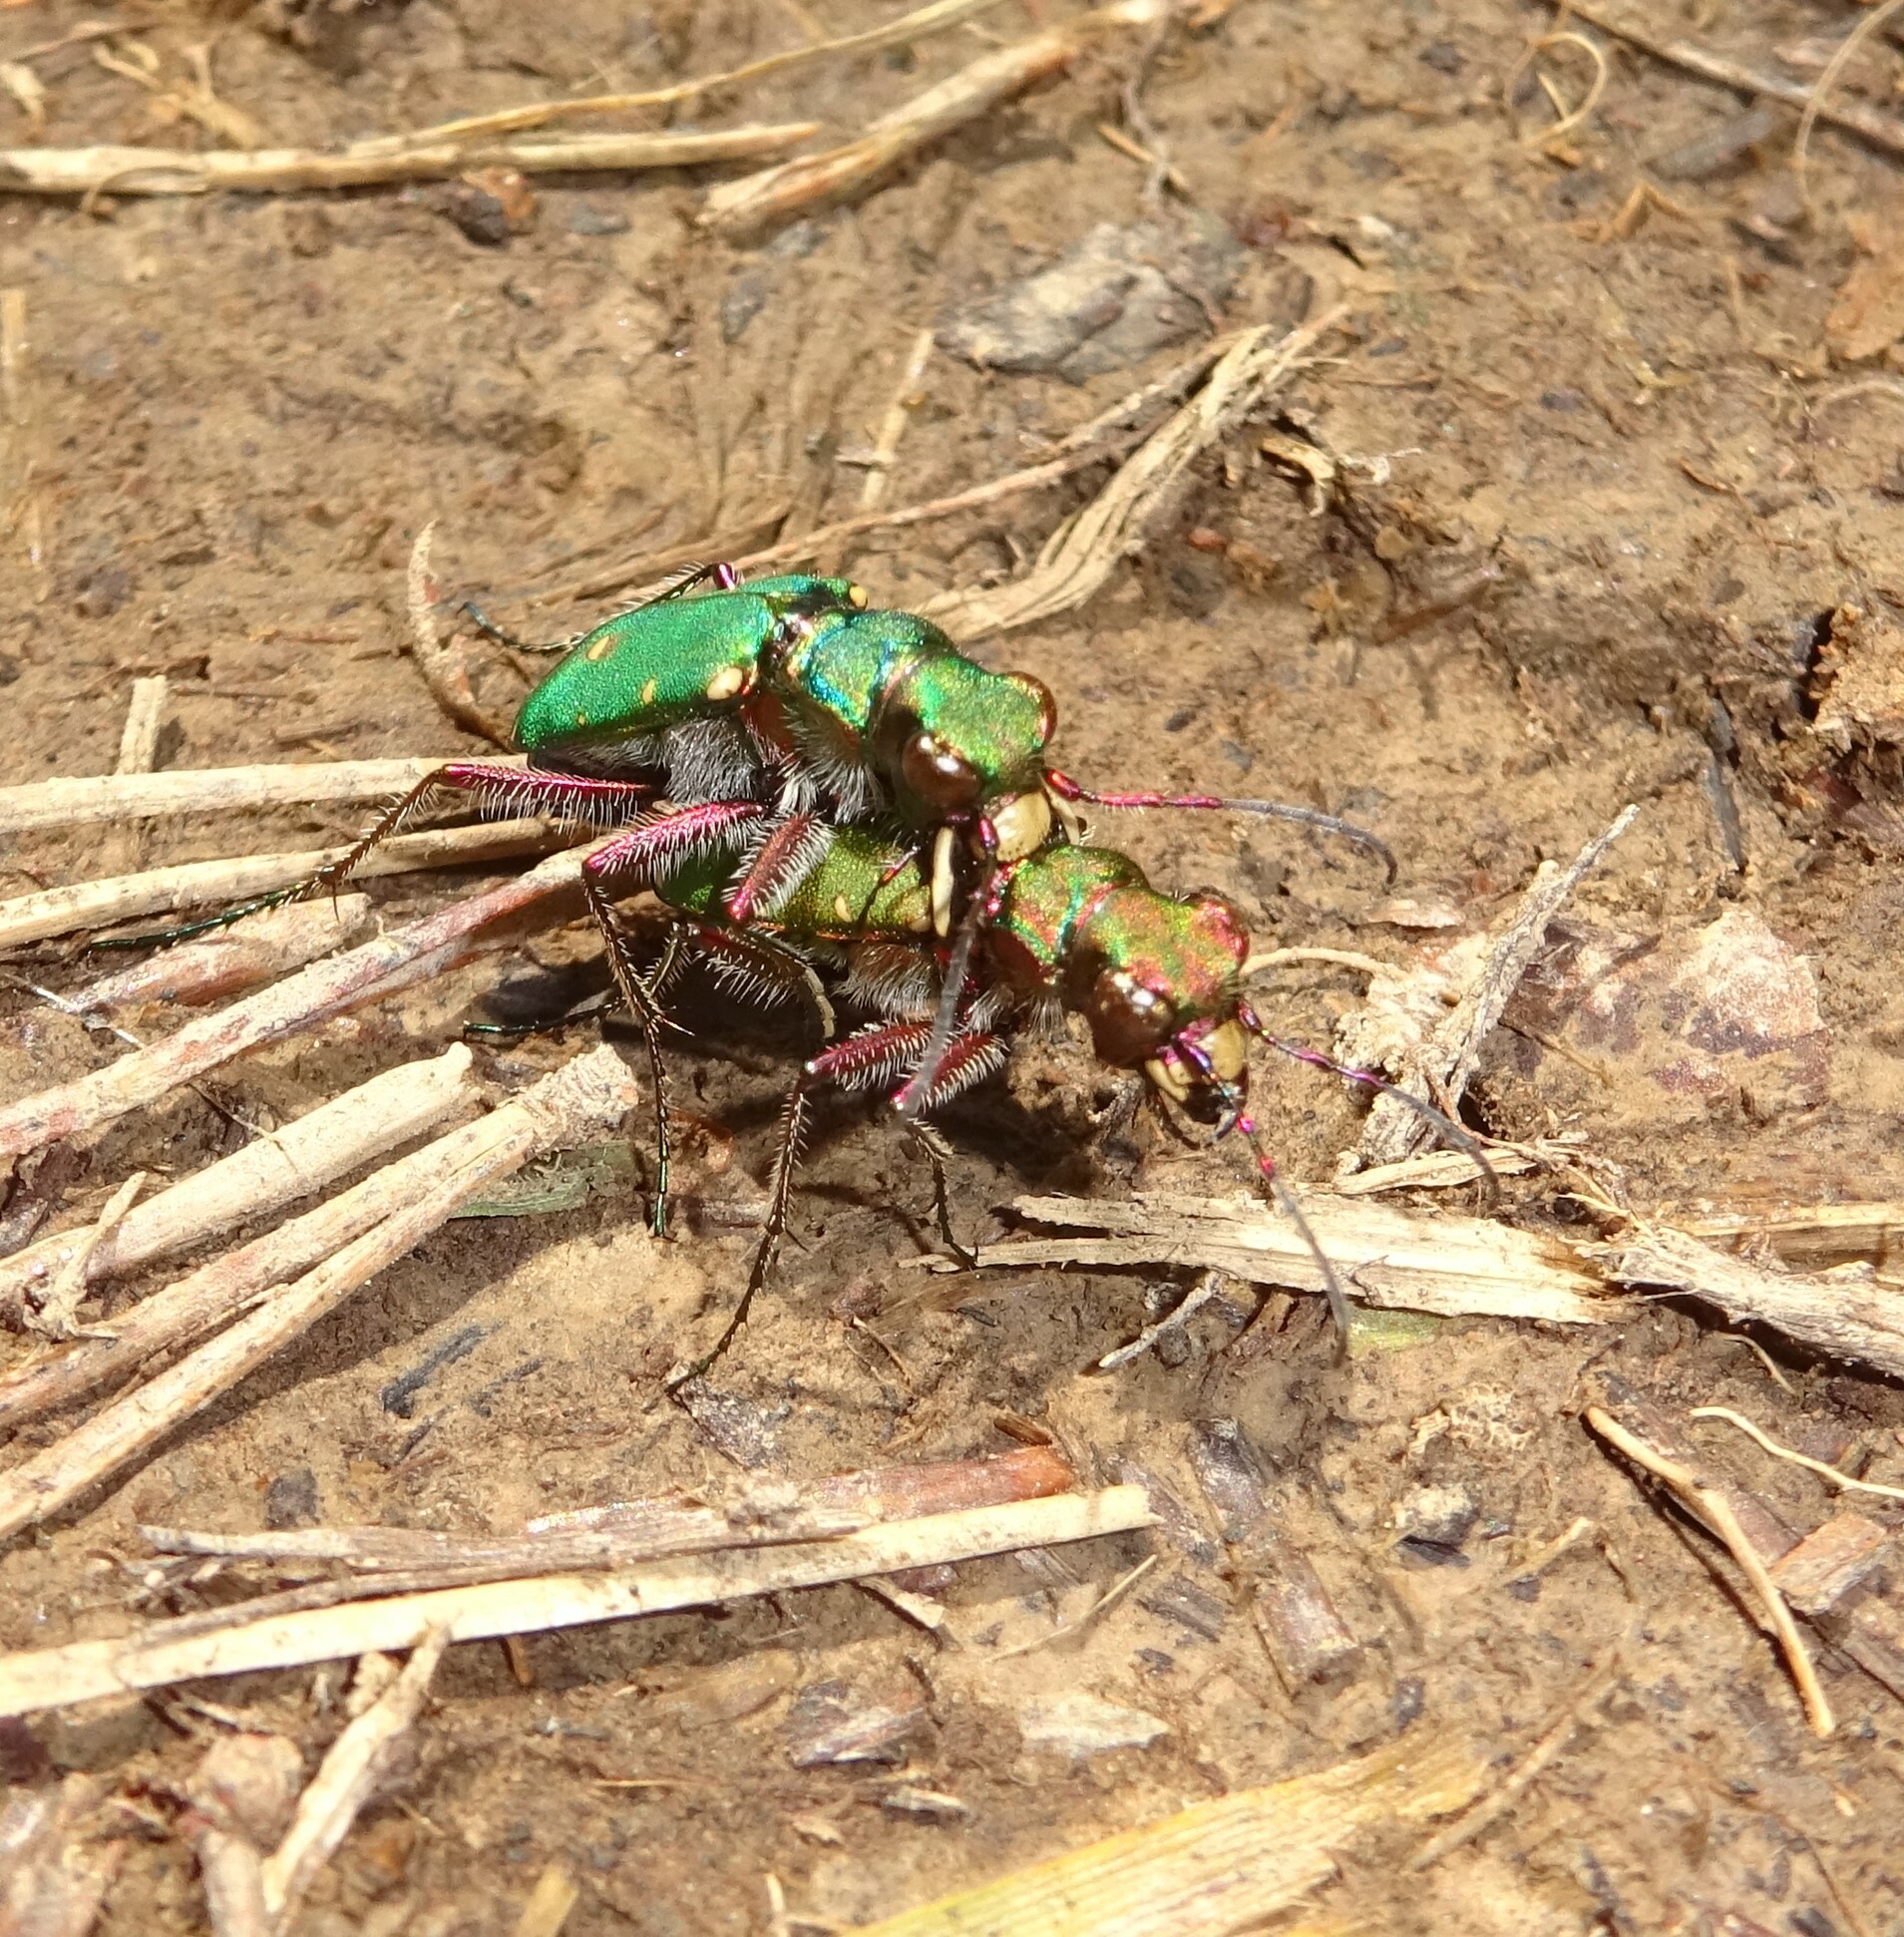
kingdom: Animalia
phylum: Arthropoda
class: Insecta
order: Coleoptera
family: Carabidae
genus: Cicindela
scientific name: Cicindela campestris
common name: Common tiger beetle
